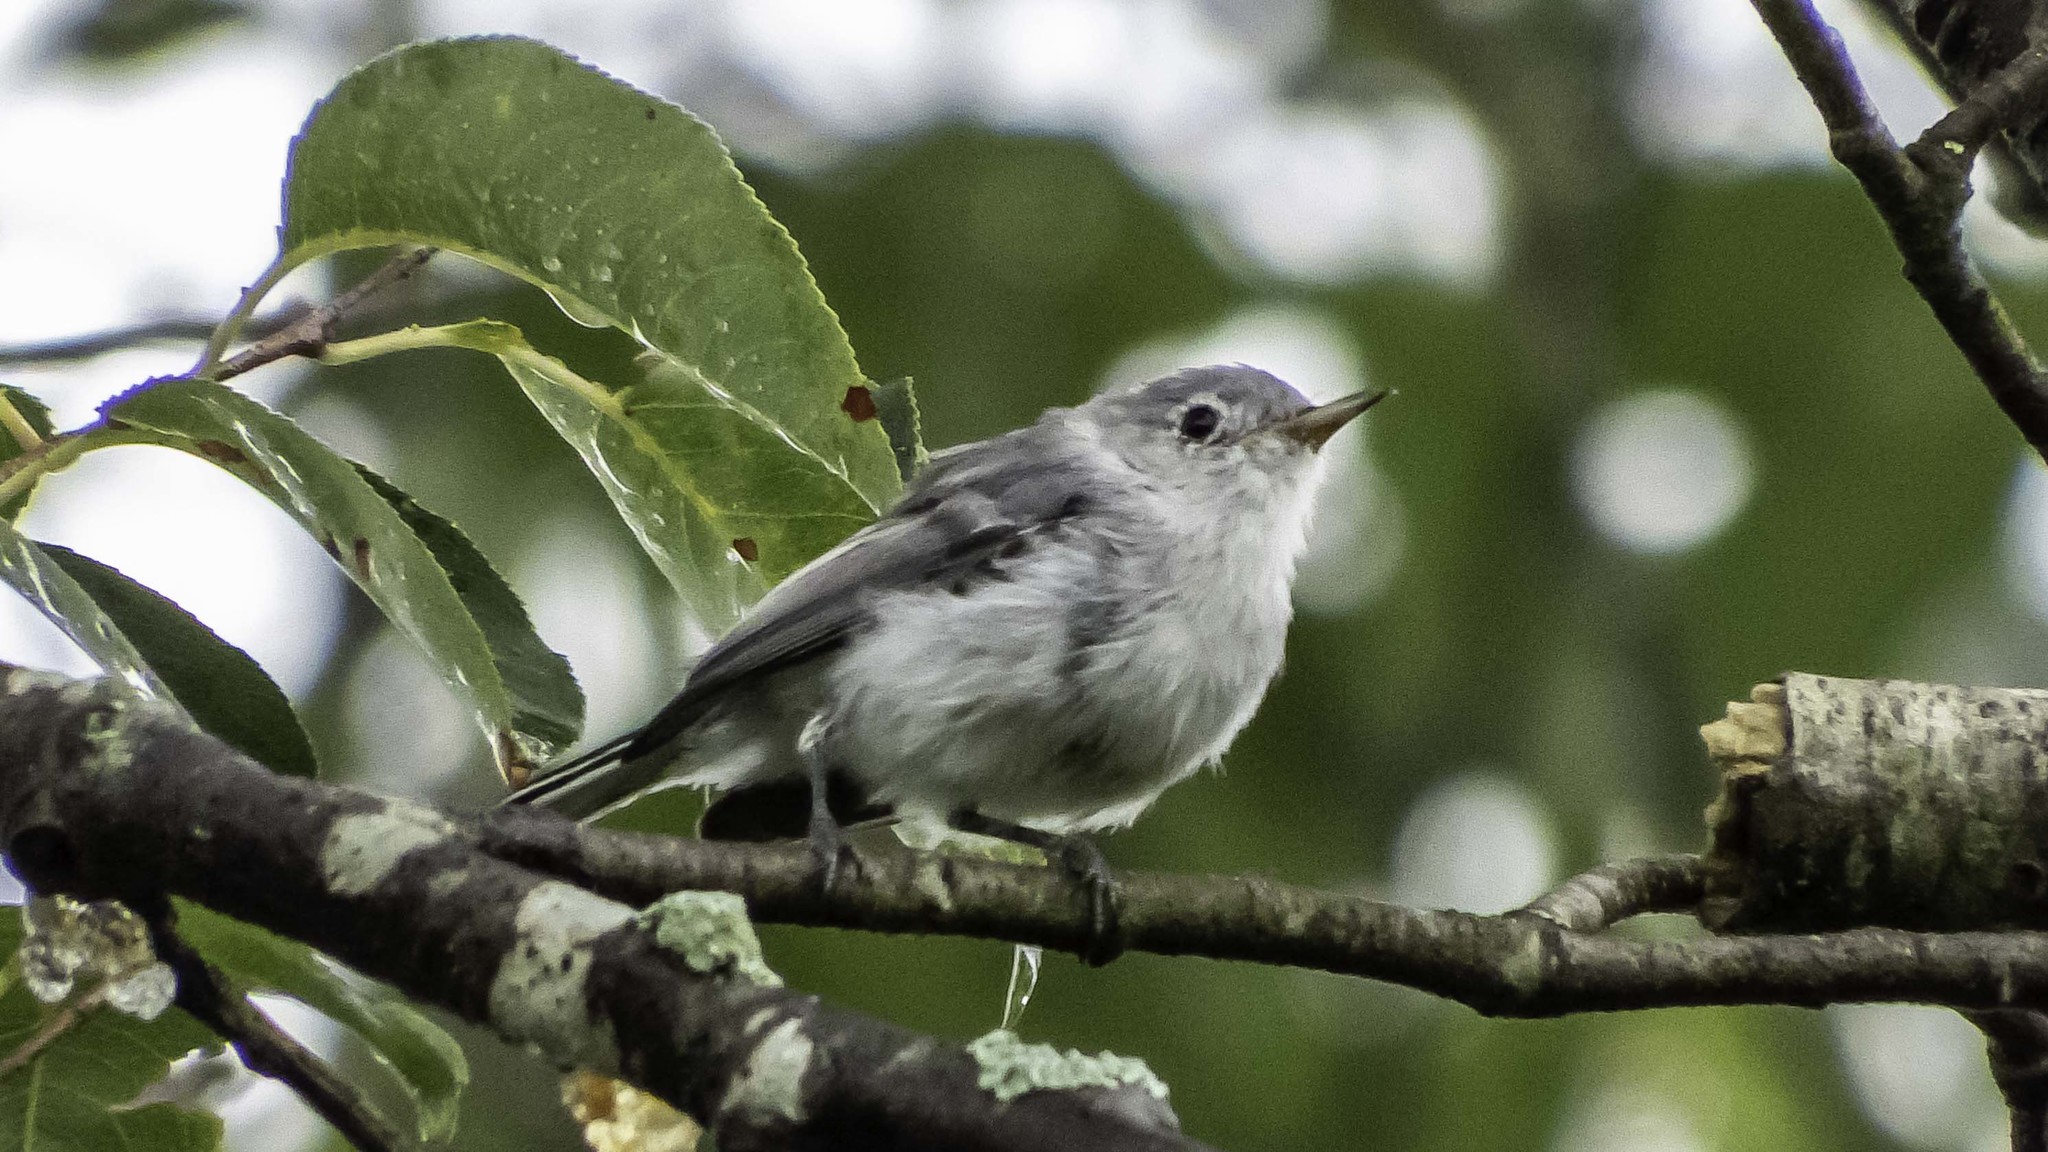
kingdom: Animalia
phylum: Chordata
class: Aves
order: Passeriformes
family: Polioptilidae
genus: Polioptila
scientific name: Polioptila caerulea
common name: Blue-gray gnatcatcher
